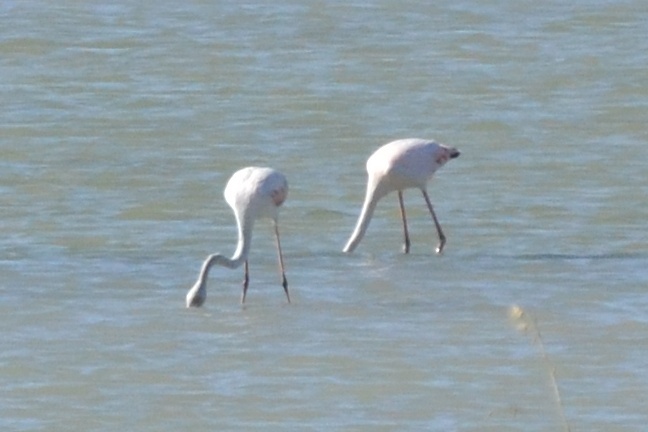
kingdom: Animalia
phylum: Chordata
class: Aves
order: Phoenicopteriformes
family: Phoenicopteridae
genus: Phoenicopterus
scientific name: Phoenicopterus roseus
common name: Greater flamingo
